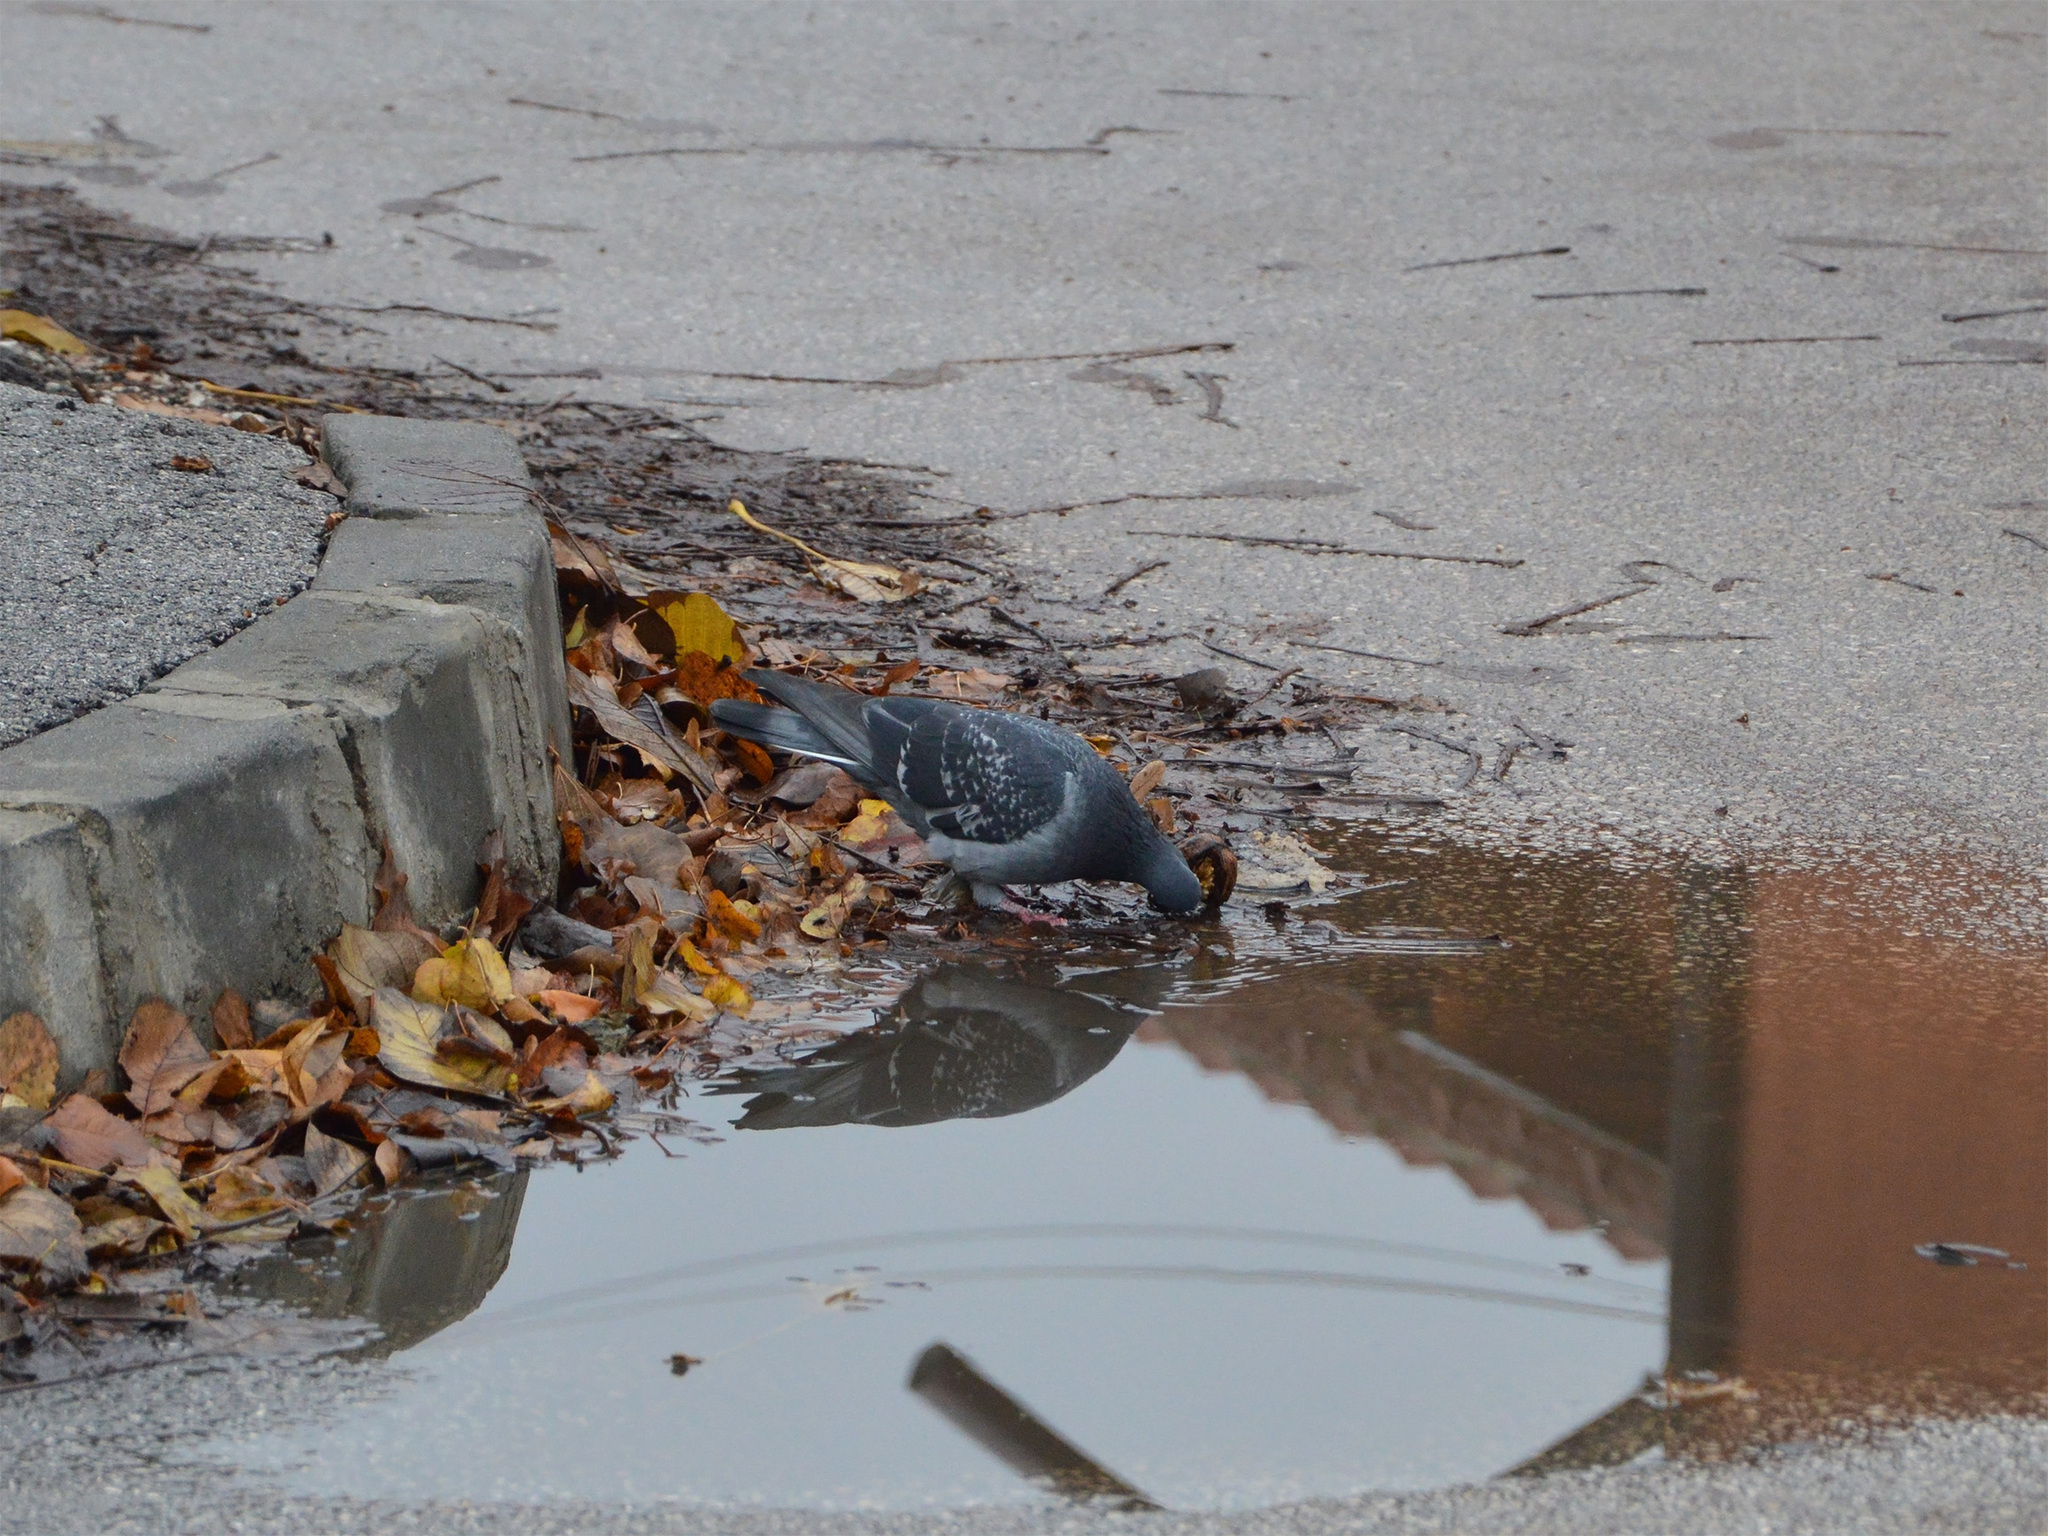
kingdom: Animalia
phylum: Chordata
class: Aves
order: Columbiformes
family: Columbidae
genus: Columba
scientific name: Columba livia
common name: Rock pigeon
